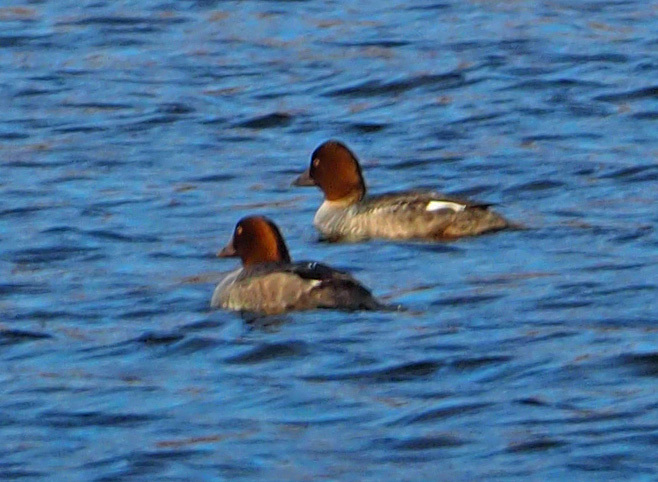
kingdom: Animalia
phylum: Chordata
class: Aves
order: Anseriformes
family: Anatidae
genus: Bucephala
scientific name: Bucephala clangula
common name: Common goldeneye
